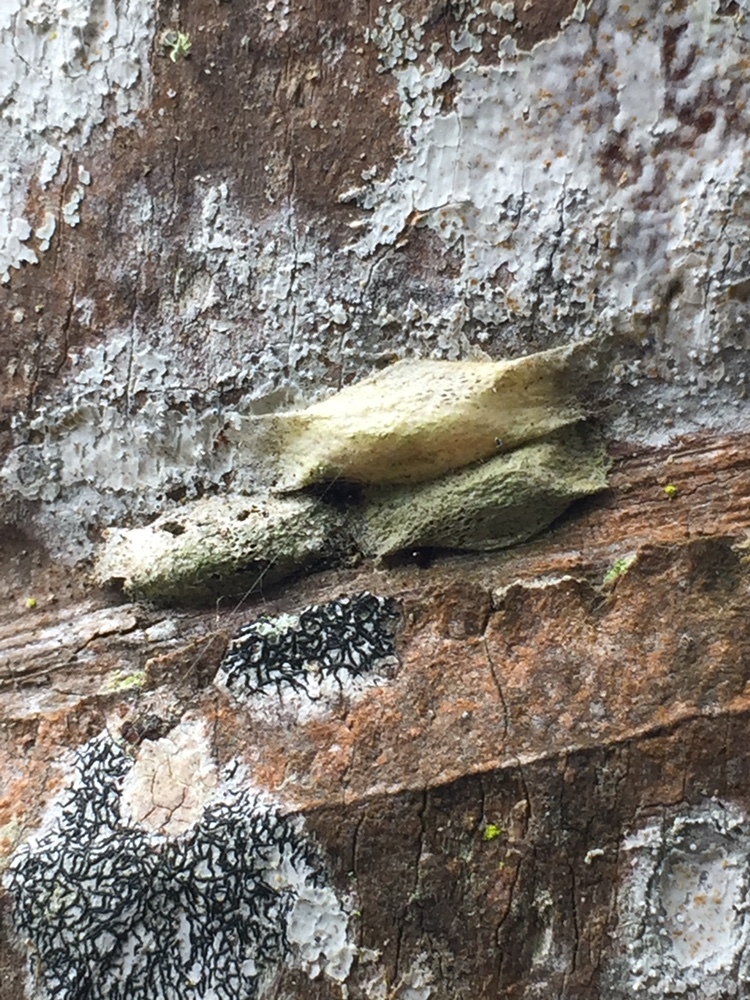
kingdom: Animalia
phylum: Arthropoda
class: Insecta
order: Lepidoptera
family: Plutellidae
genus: Doxophyrtis
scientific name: Doxophyrtis hydrocosma
